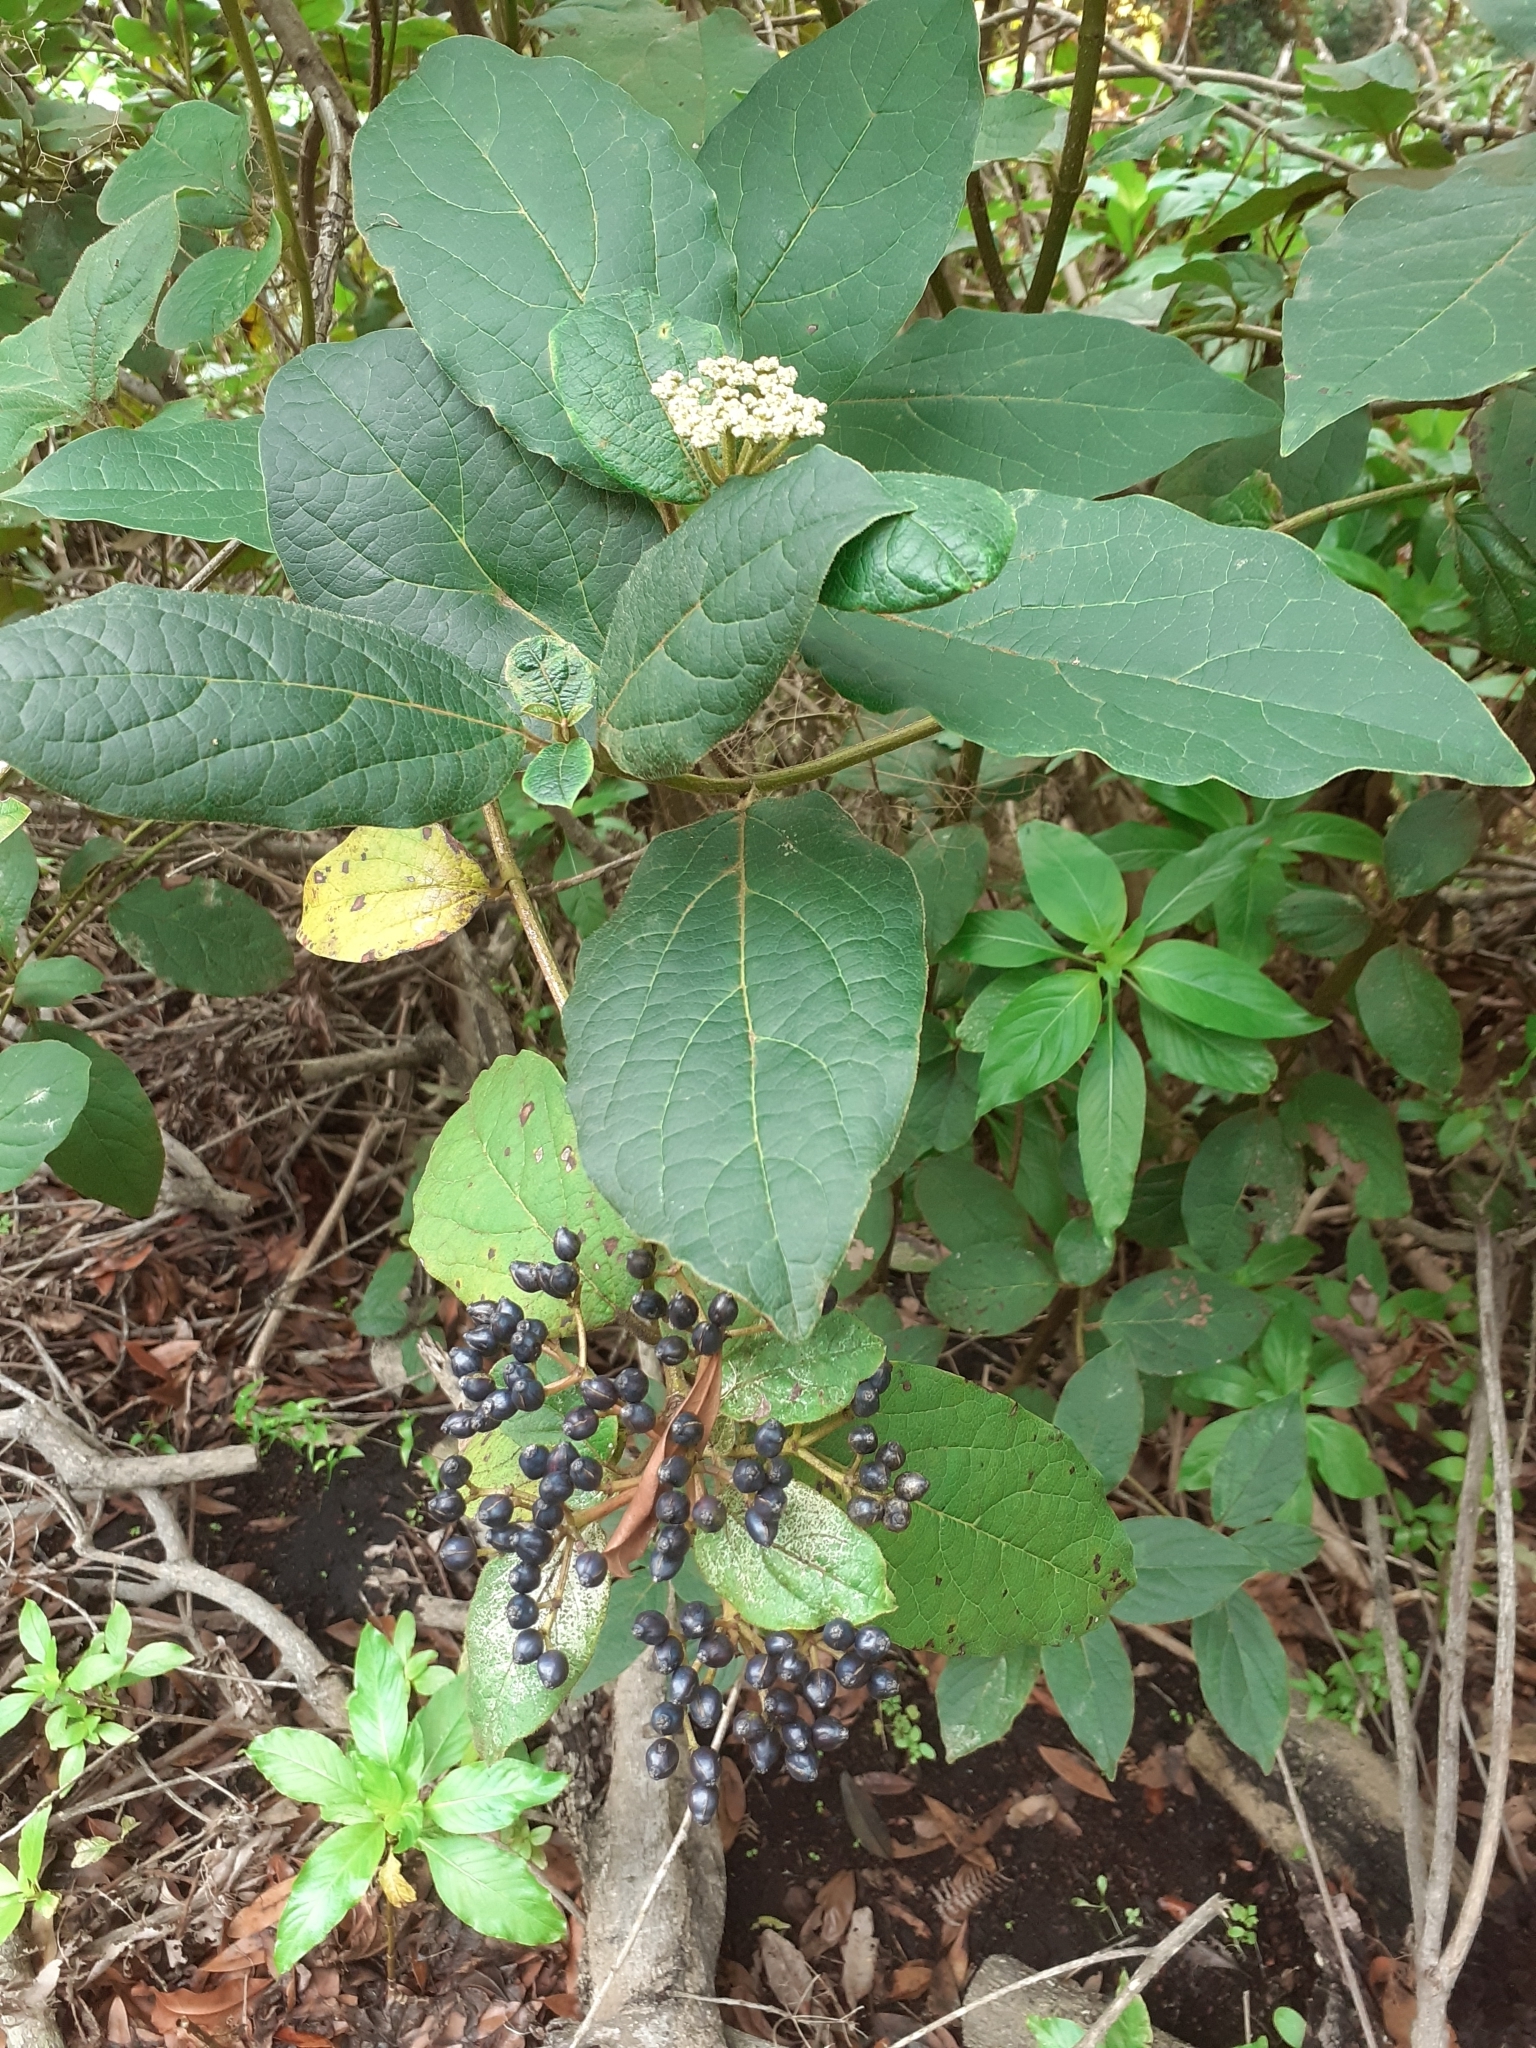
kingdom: Plantae
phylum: Tracheophyta
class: Magnoliopsida
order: Dipsacales
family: Viburnaceae
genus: Viburnum
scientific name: Viburnum rugosum
